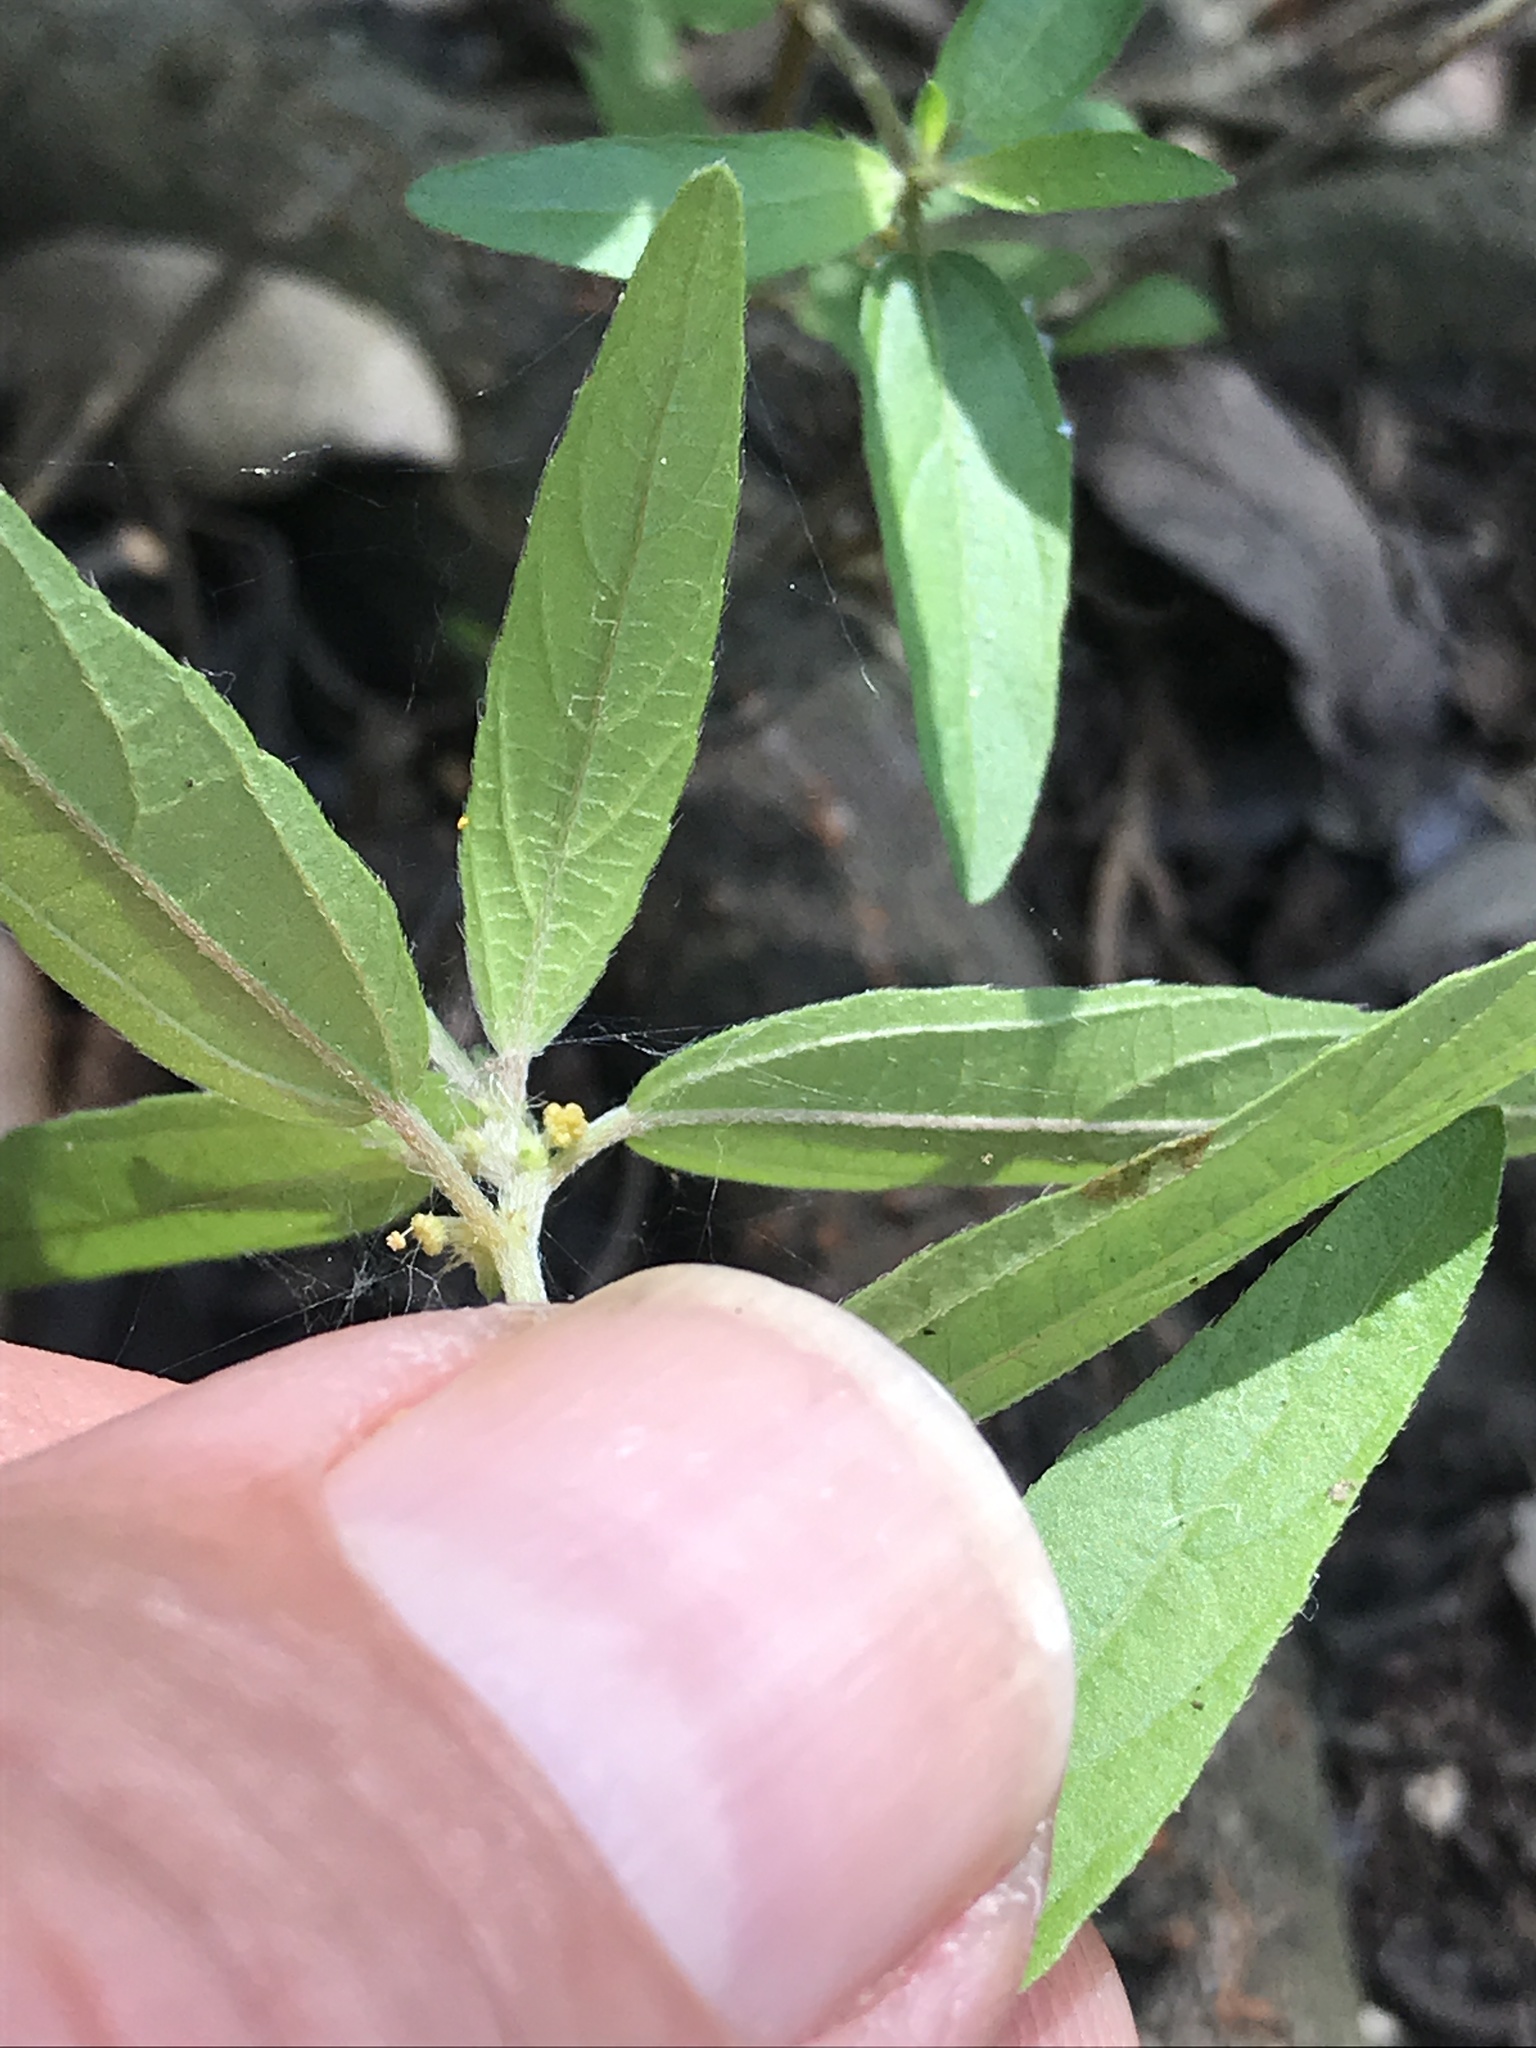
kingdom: Plantae
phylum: Tracheophyta
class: Magnoliopsida
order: Malpighiales
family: Euphorbiaceae
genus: Acalypha
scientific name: Acalypha gracilens
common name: Slender three-seeded mercury
